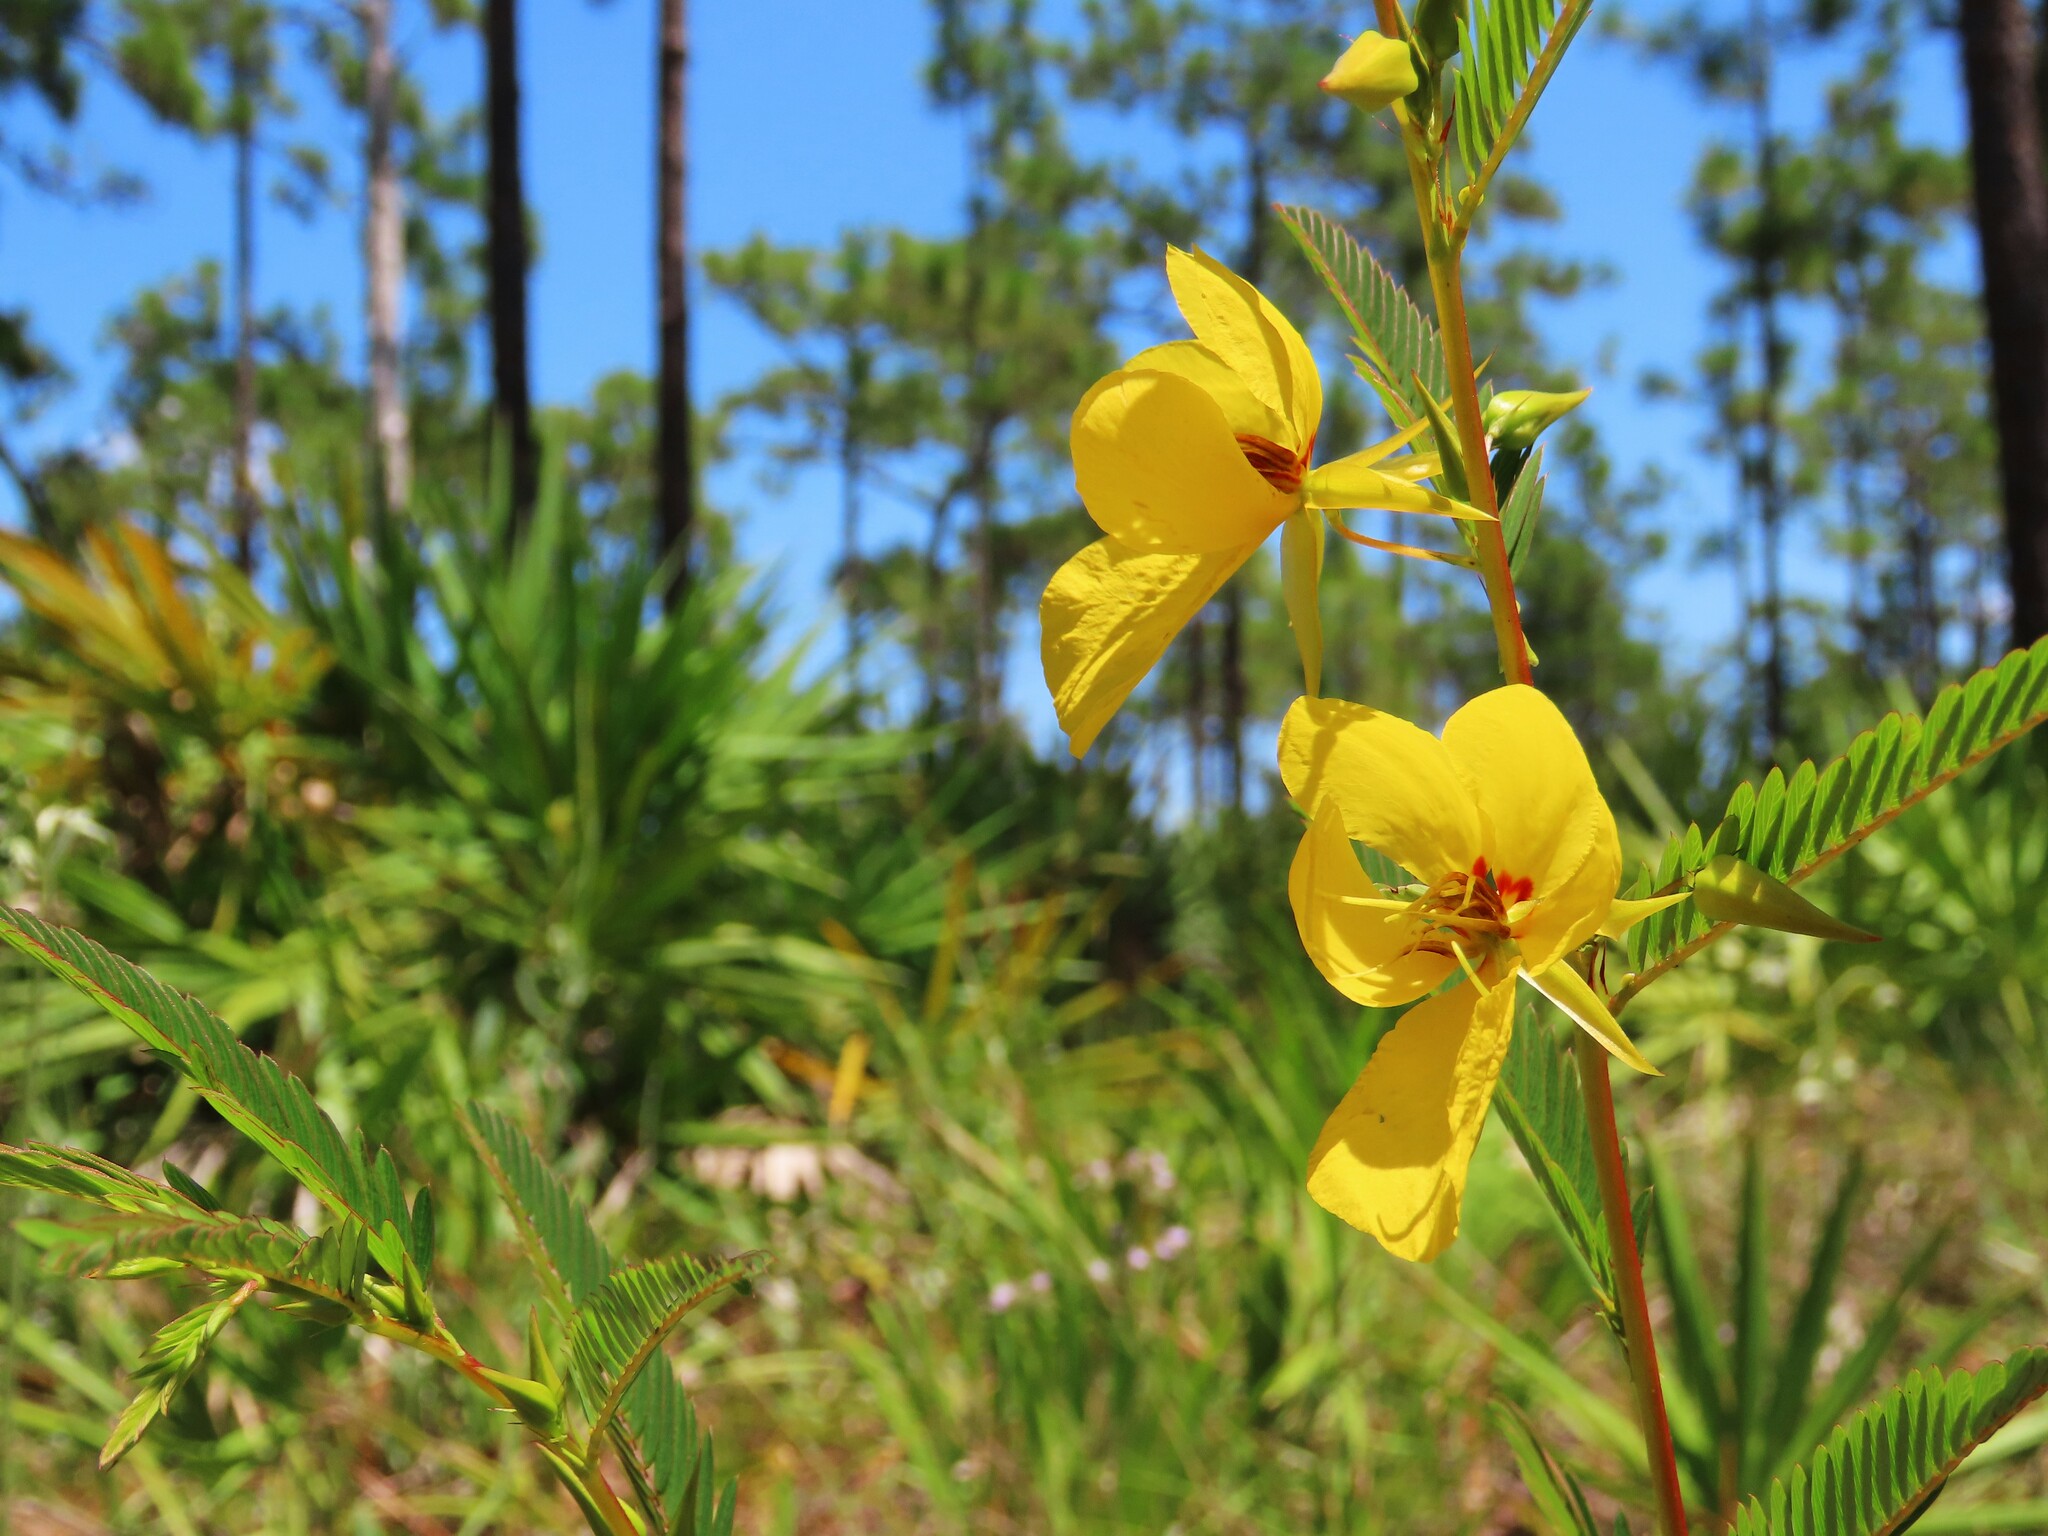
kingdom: Plantae
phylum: Tracheophyta
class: Magnoliopsida
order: Fabales
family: Fabaceae
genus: Chamaecrista
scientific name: Chamaecrista fasciculata
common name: Golden cassia
